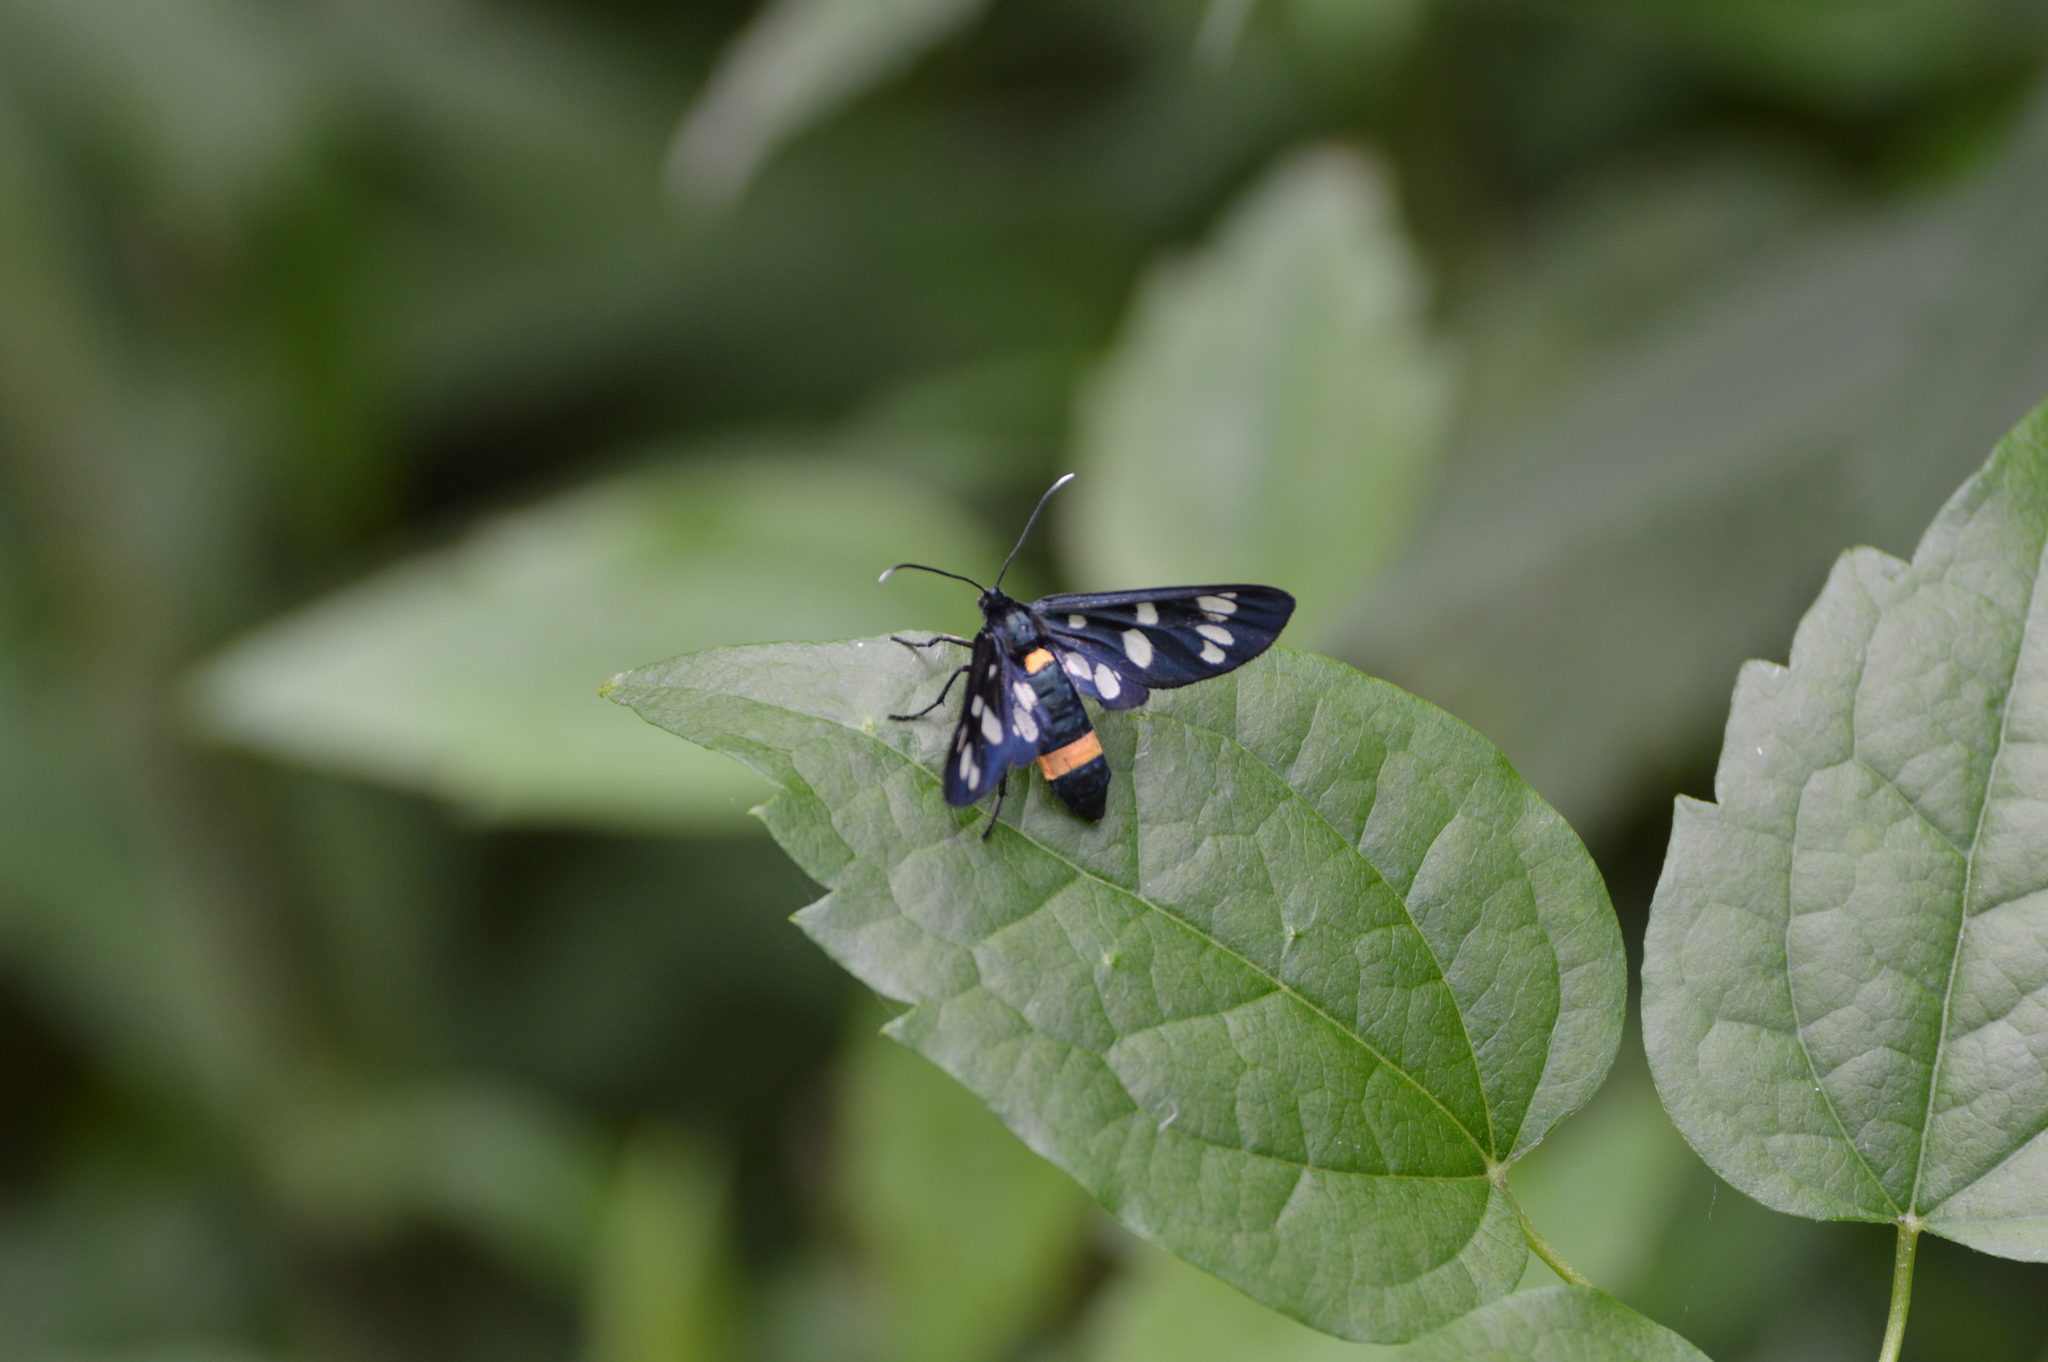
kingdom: Animalia
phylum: Arthropoda
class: Insecta
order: Lepidoptera
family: Erebidae
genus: Amata
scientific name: Amata phegea
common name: Nine-spotted
